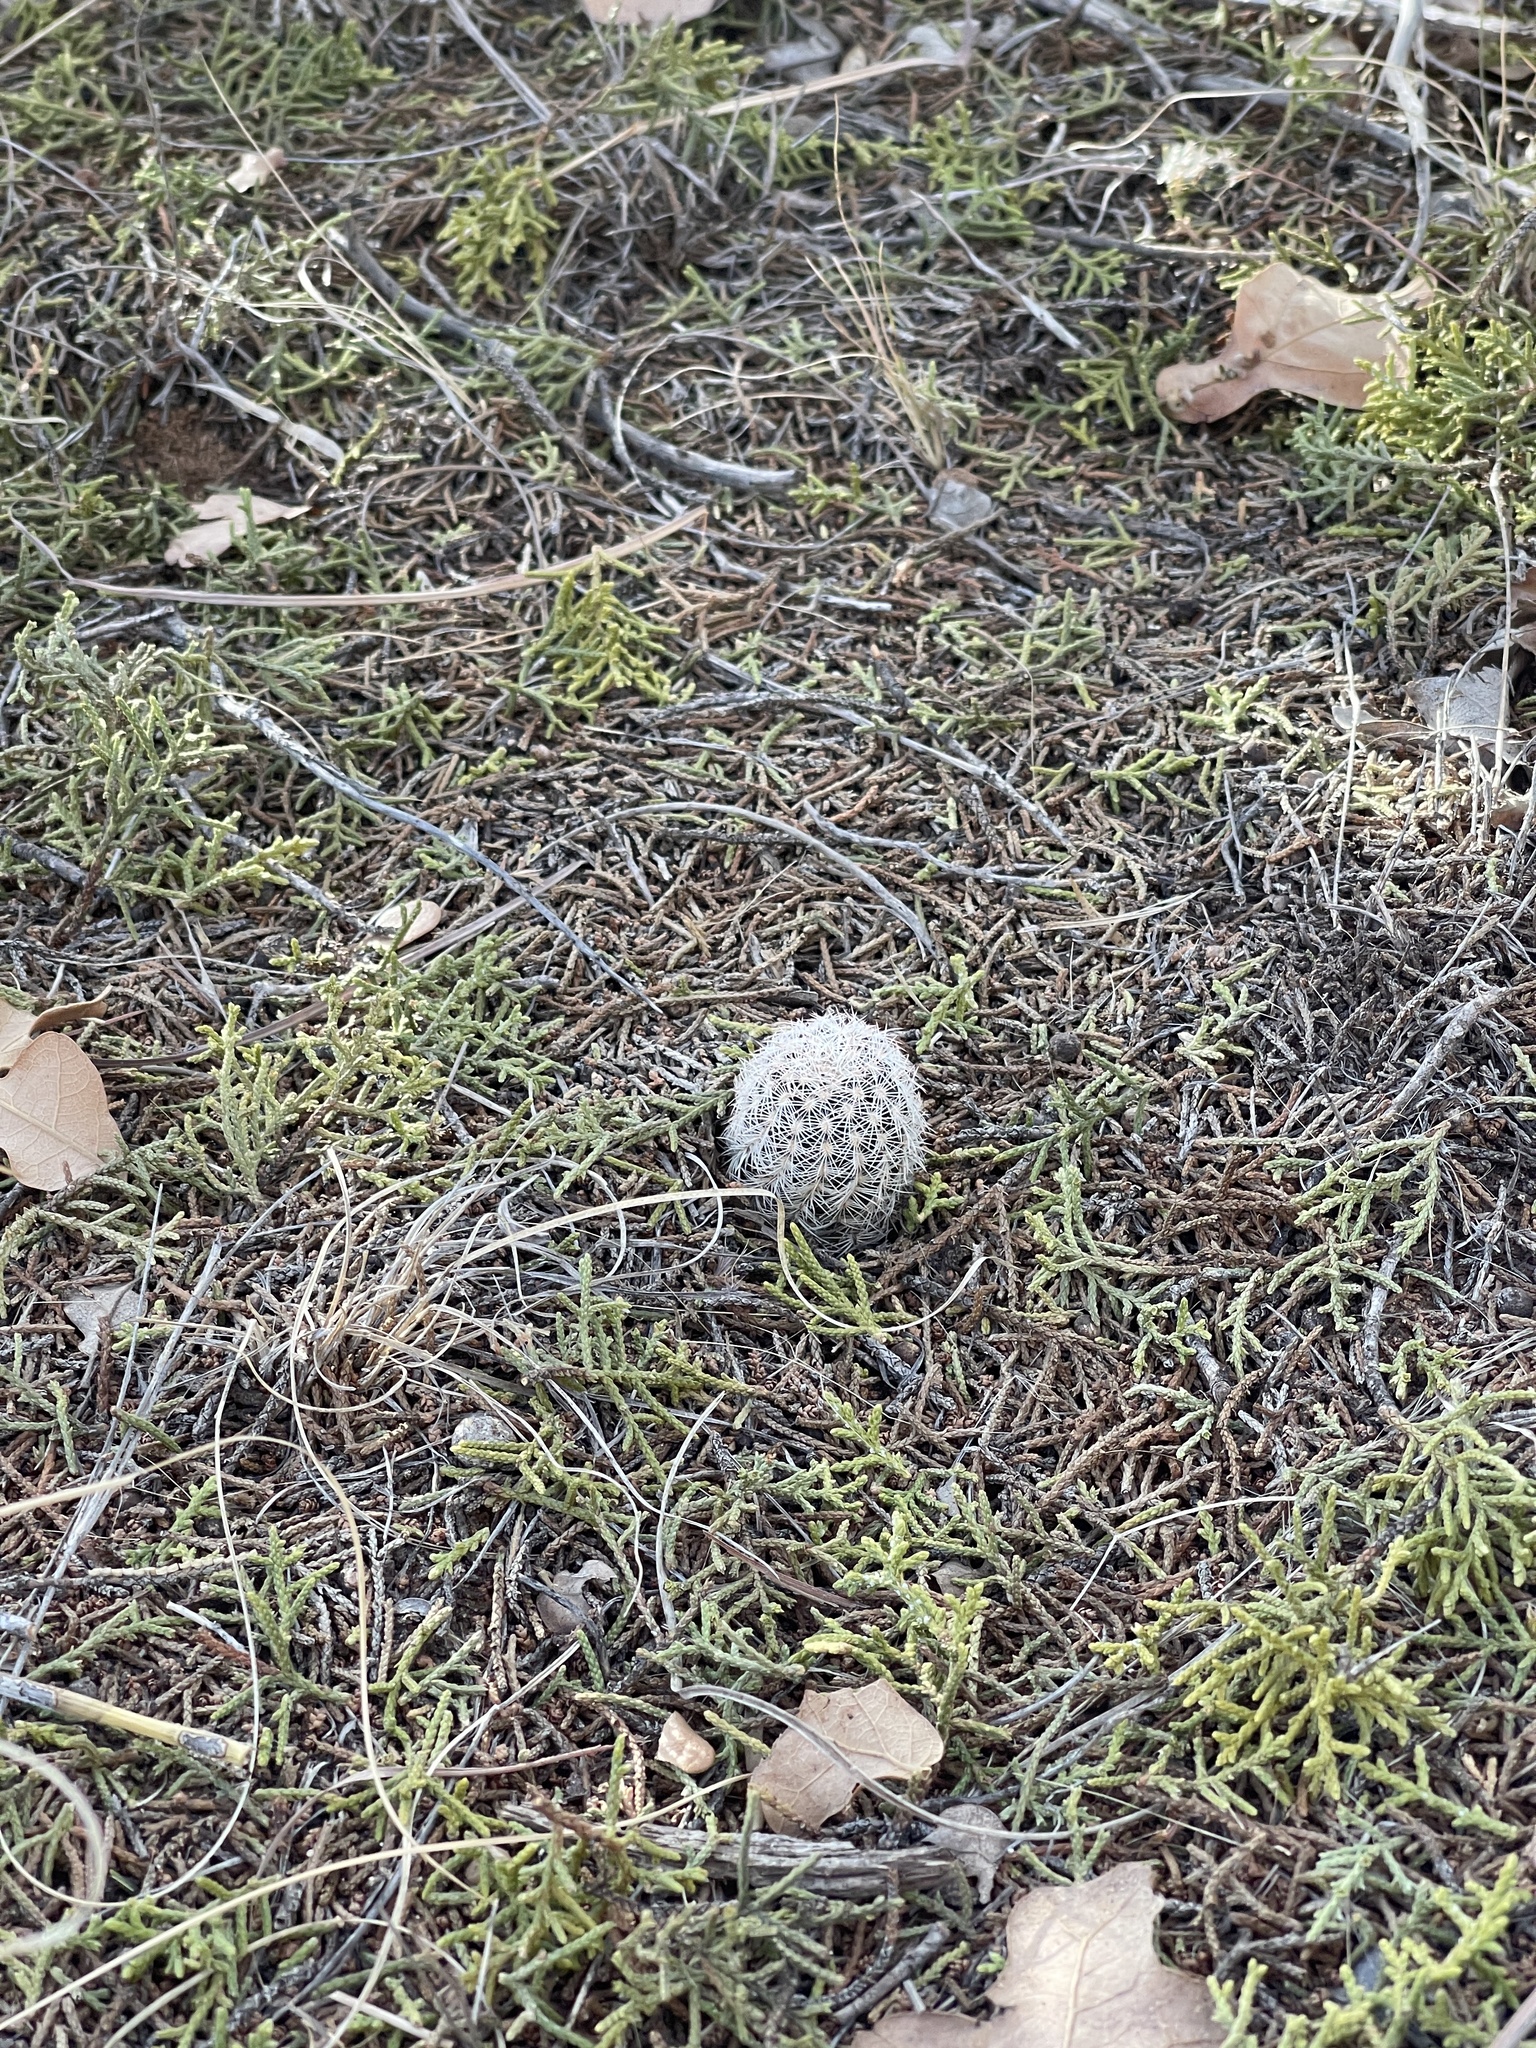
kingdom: Plantae
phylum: Tracheophyta
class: Magnoliopsida
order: Caryophyllales
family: Cactaceae
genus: Echinocereus
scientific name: Echinocereus reichenbachii
